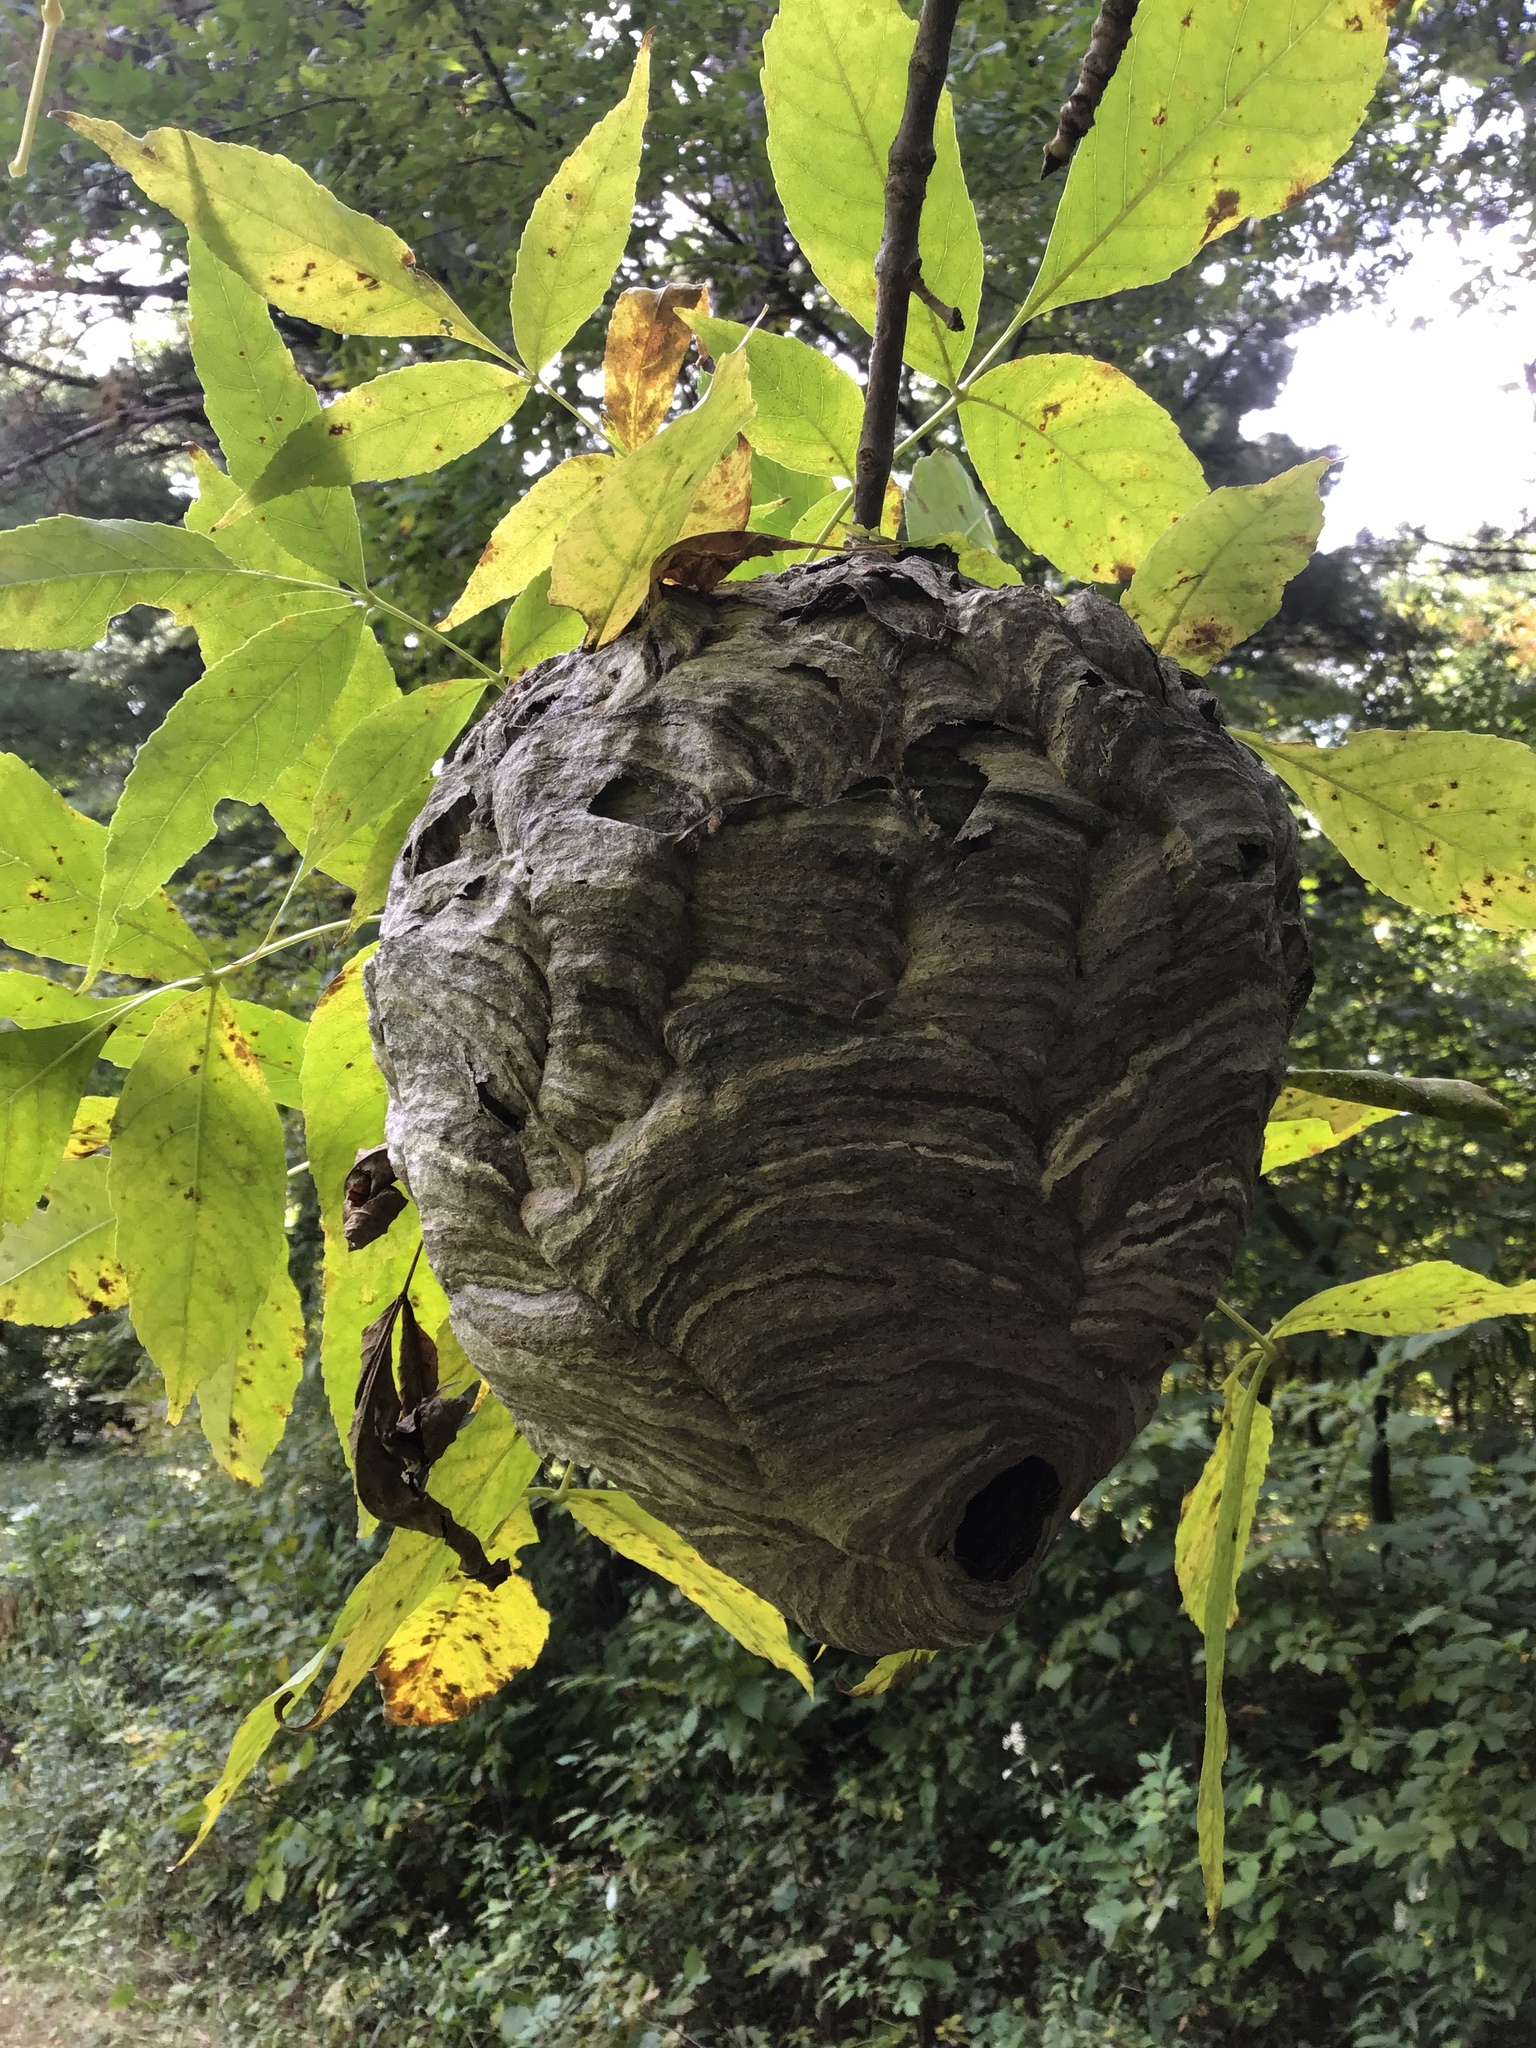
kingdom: Animalia
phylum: Arthropoda
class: Insecta
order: Hymenoptera
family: Vespidae
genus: Dolichovespula
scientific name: Dolichovespula maculata
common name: Bald-faced hornet
